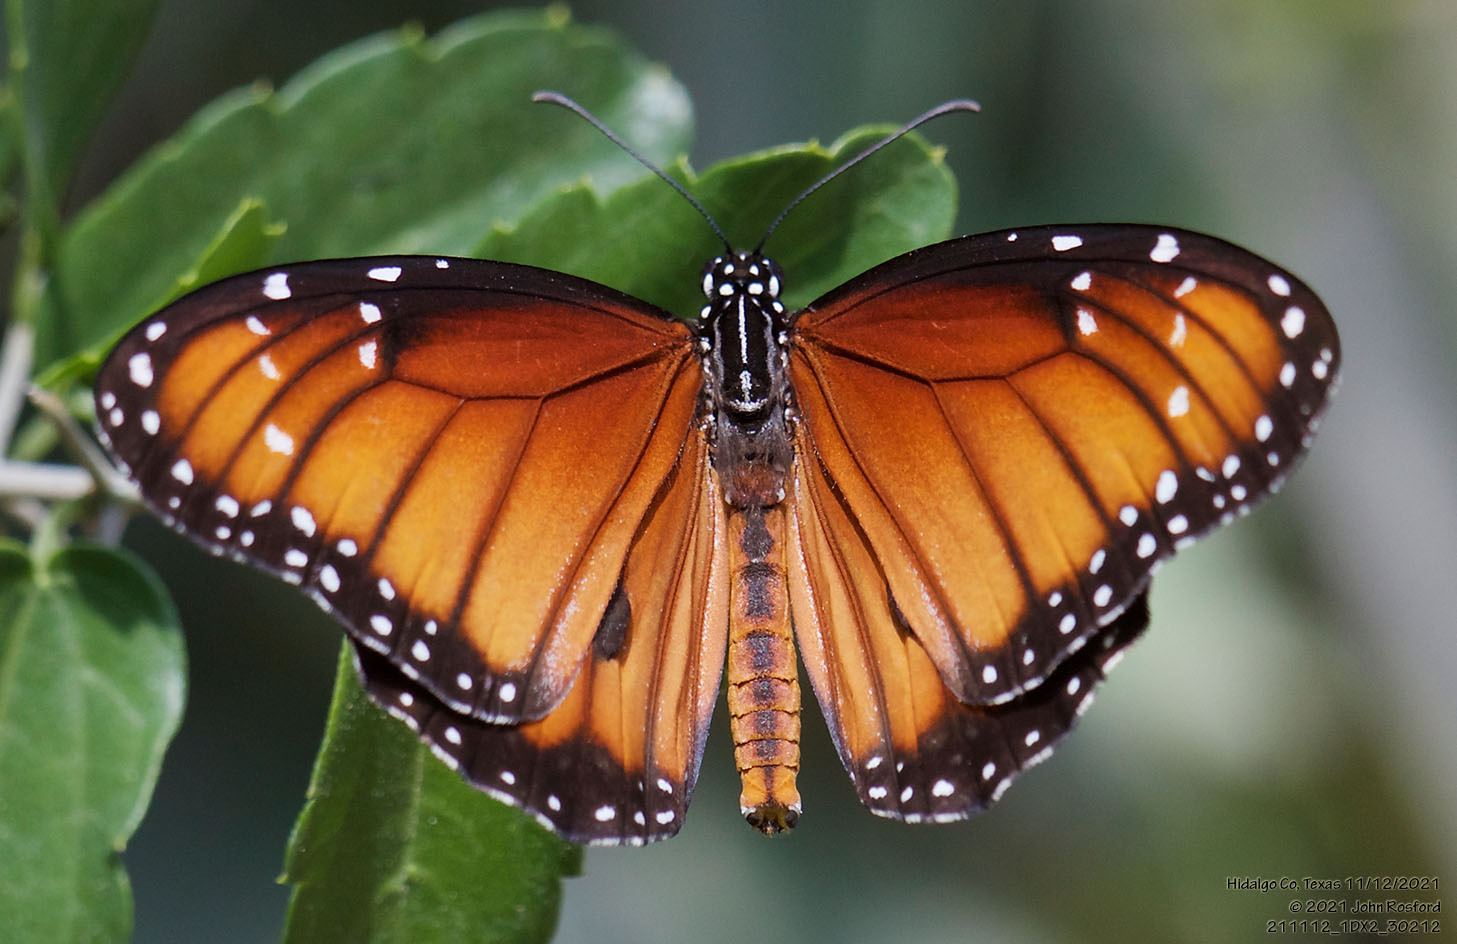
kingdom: Animalia
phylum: Arthropoda
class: Insecta
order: Lepidoptera
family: Nymphalidae
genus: Danaus
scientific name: Danaus eresimus
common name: Soldier
